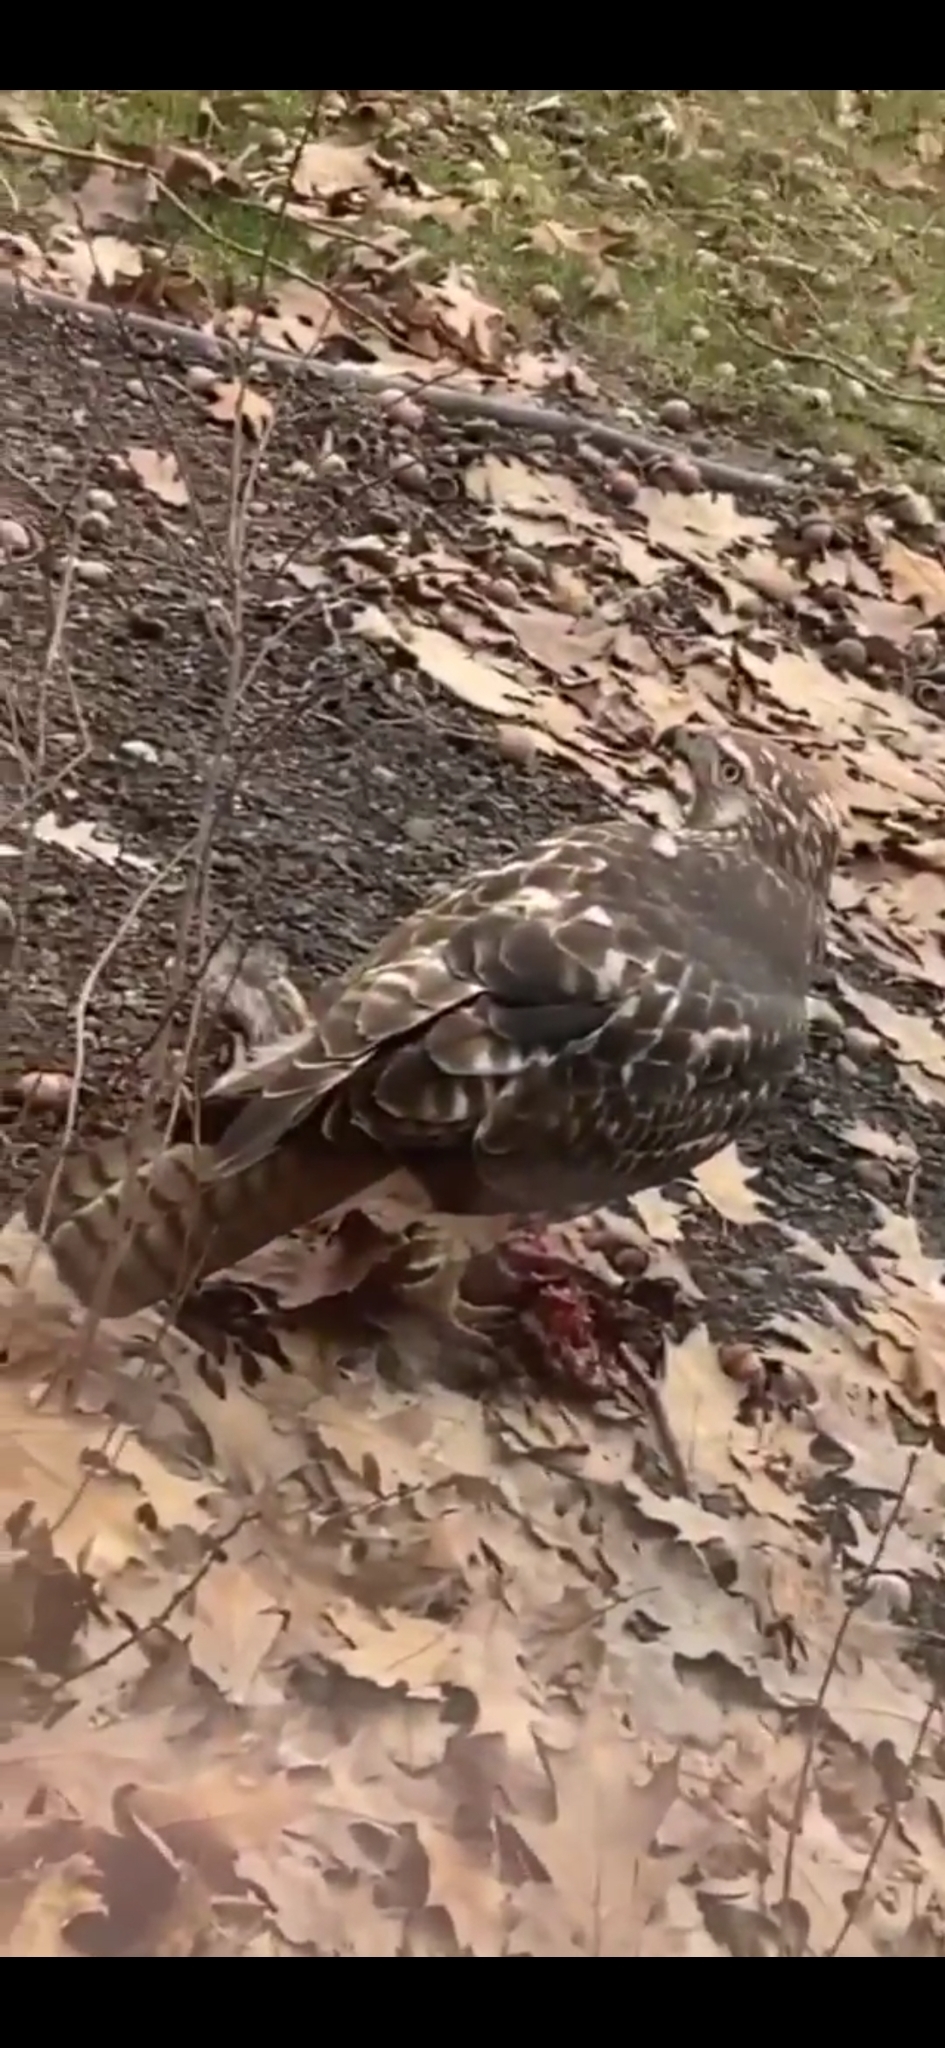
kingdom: Animalia
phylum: Chordata
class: Aves
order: Accipitriformes
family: Accipitridae
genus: Buteo
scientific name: Buteo jamaicensis
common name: Red-tailed hawk
